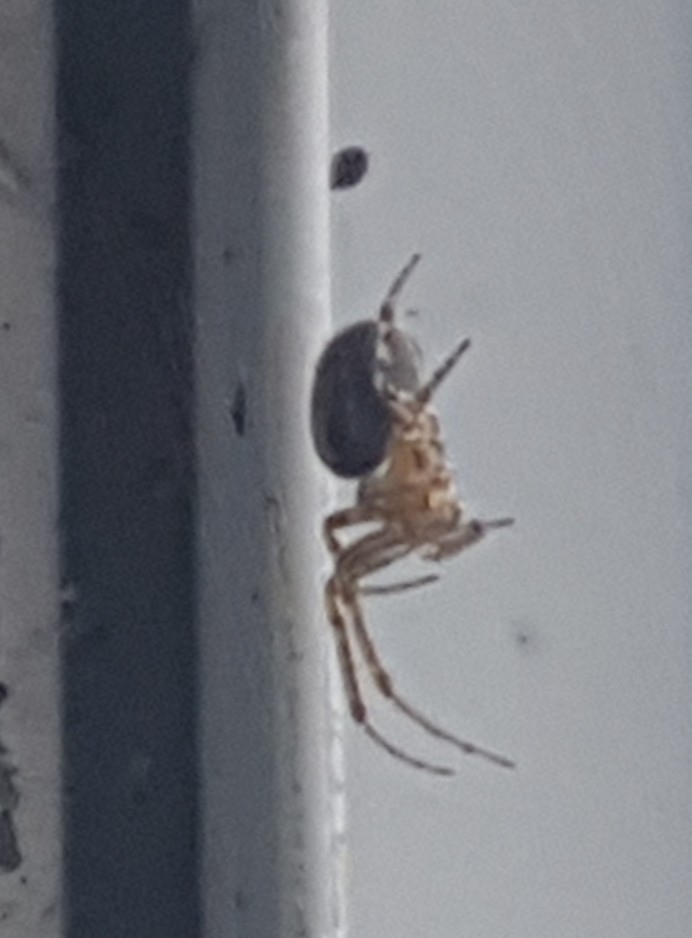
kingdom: Animalia
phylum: Arthropoda
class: Arachnida
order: Araneae
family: Araneidae
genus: Zygiella
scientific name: Zygiella x-notata
